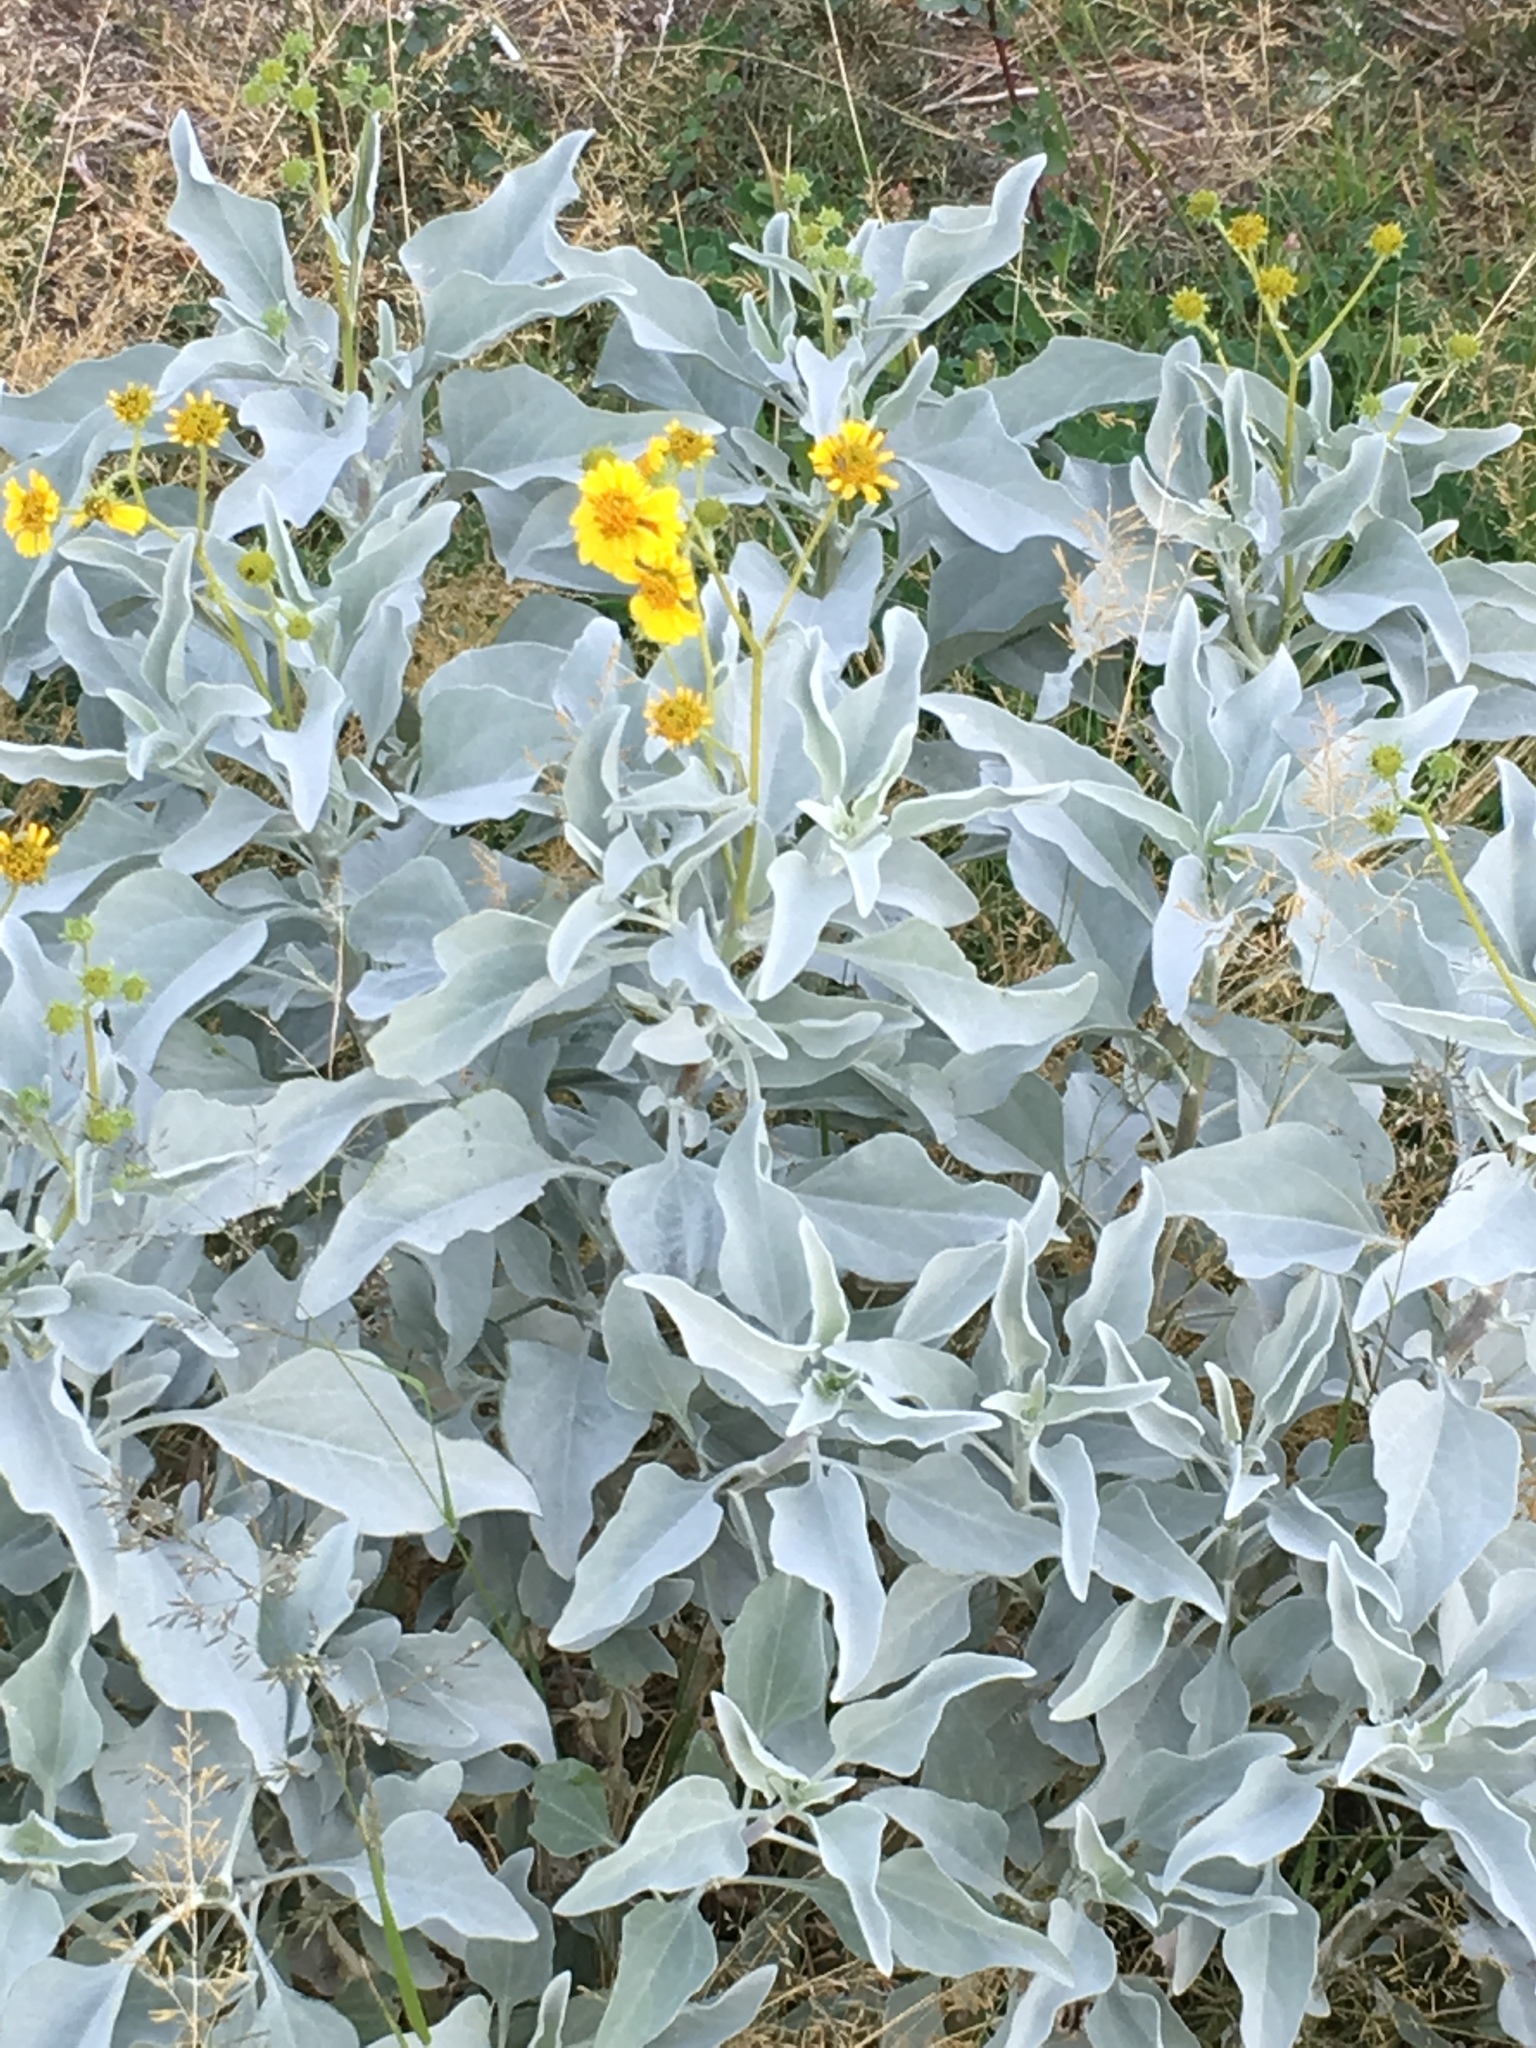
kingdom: Plantae
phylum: Tracheophyta
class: Magnoliopsida
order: Asterales
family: Asteraceae
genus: Encelia
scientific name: Encelia farinosa
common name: Brittlebush
